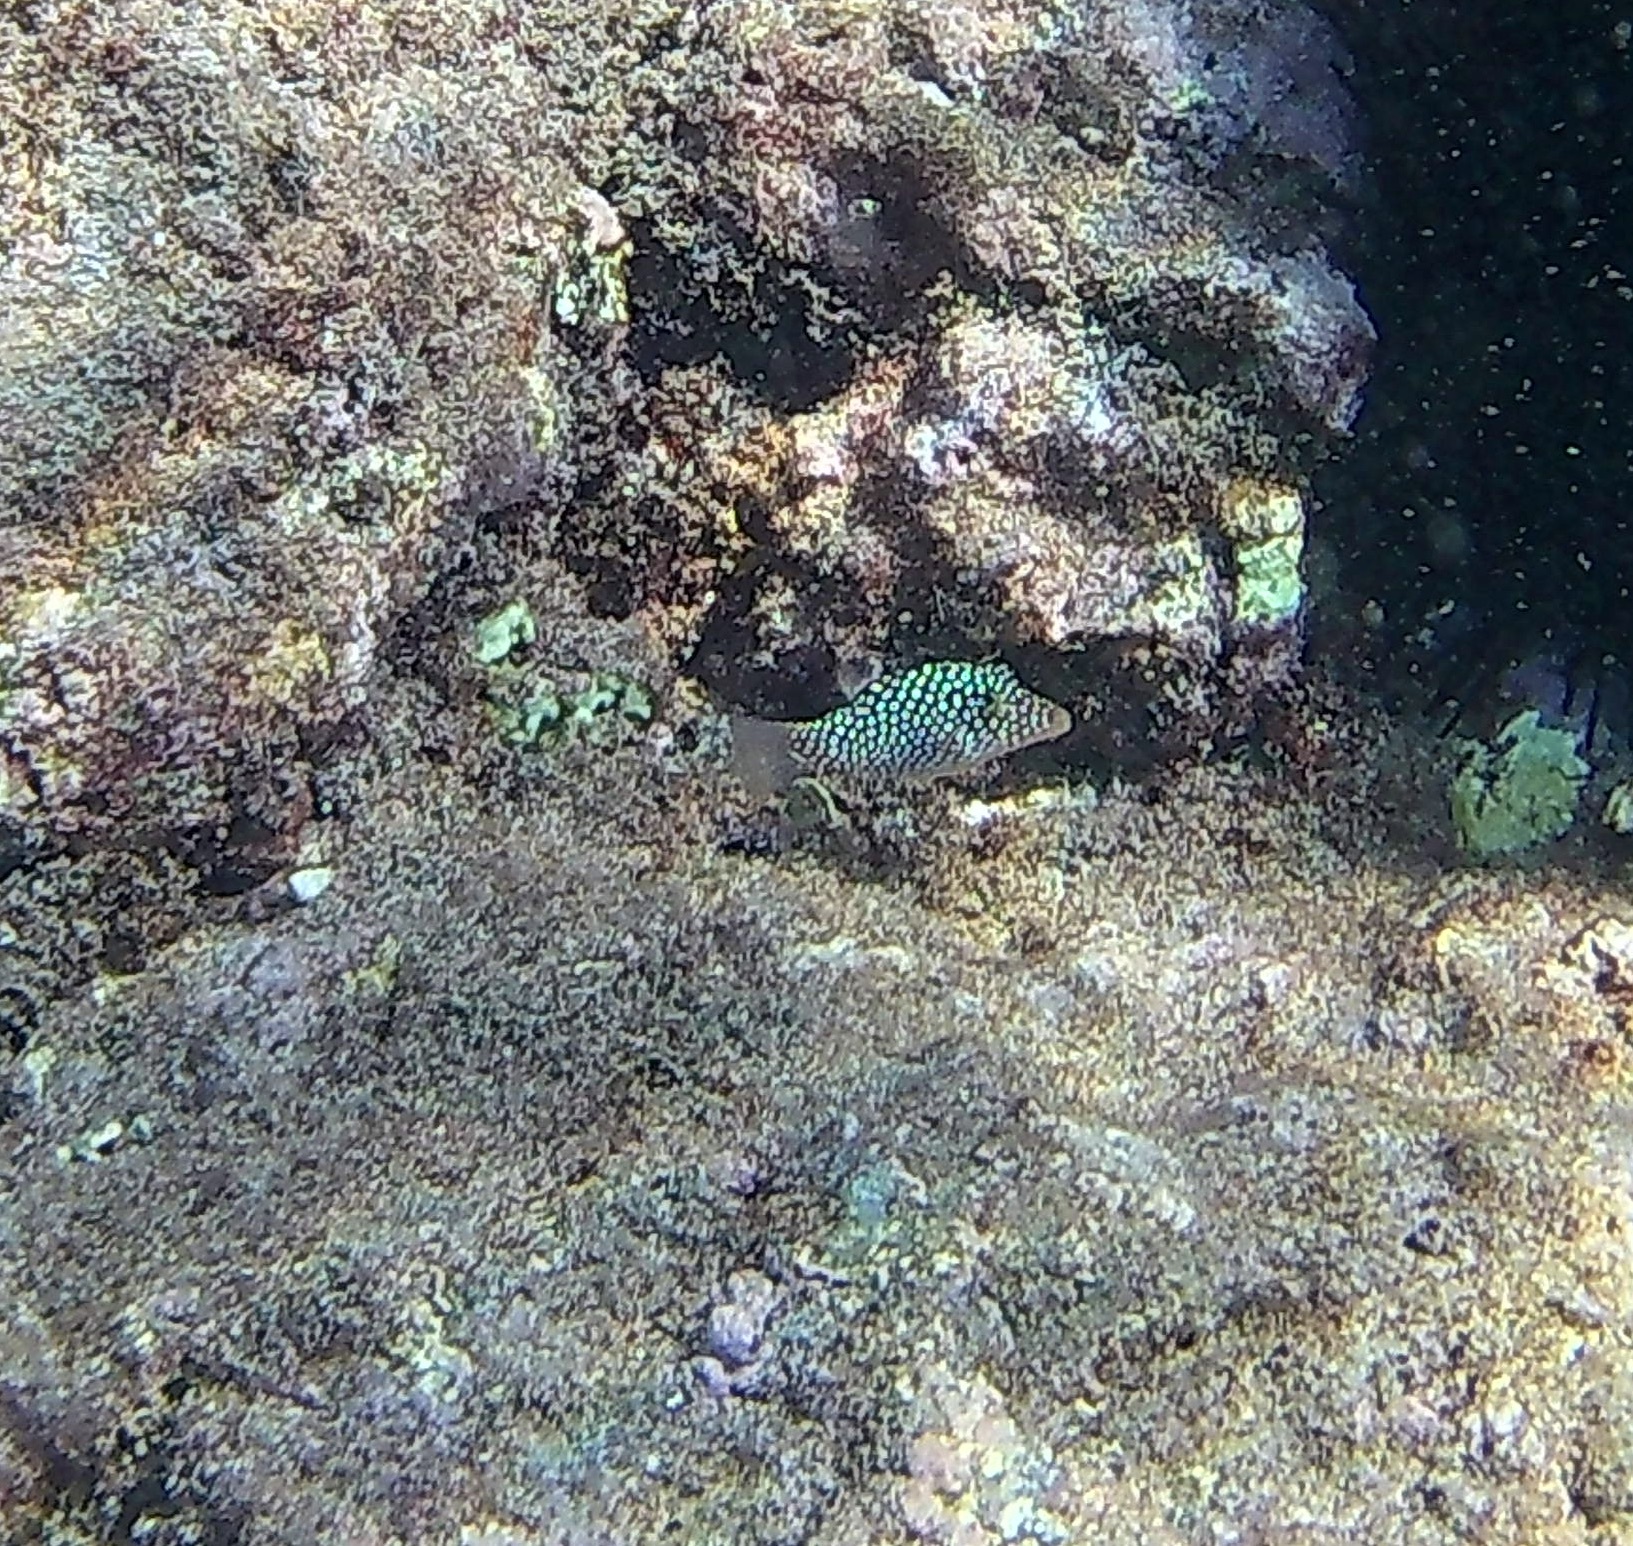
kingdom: Animalia
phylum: Chordata
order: Tetraodontiformes
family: Tetraodontidae
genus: Canthigaster
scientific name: Canthigaster jactator
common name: Hawaiian whitespotted toby
